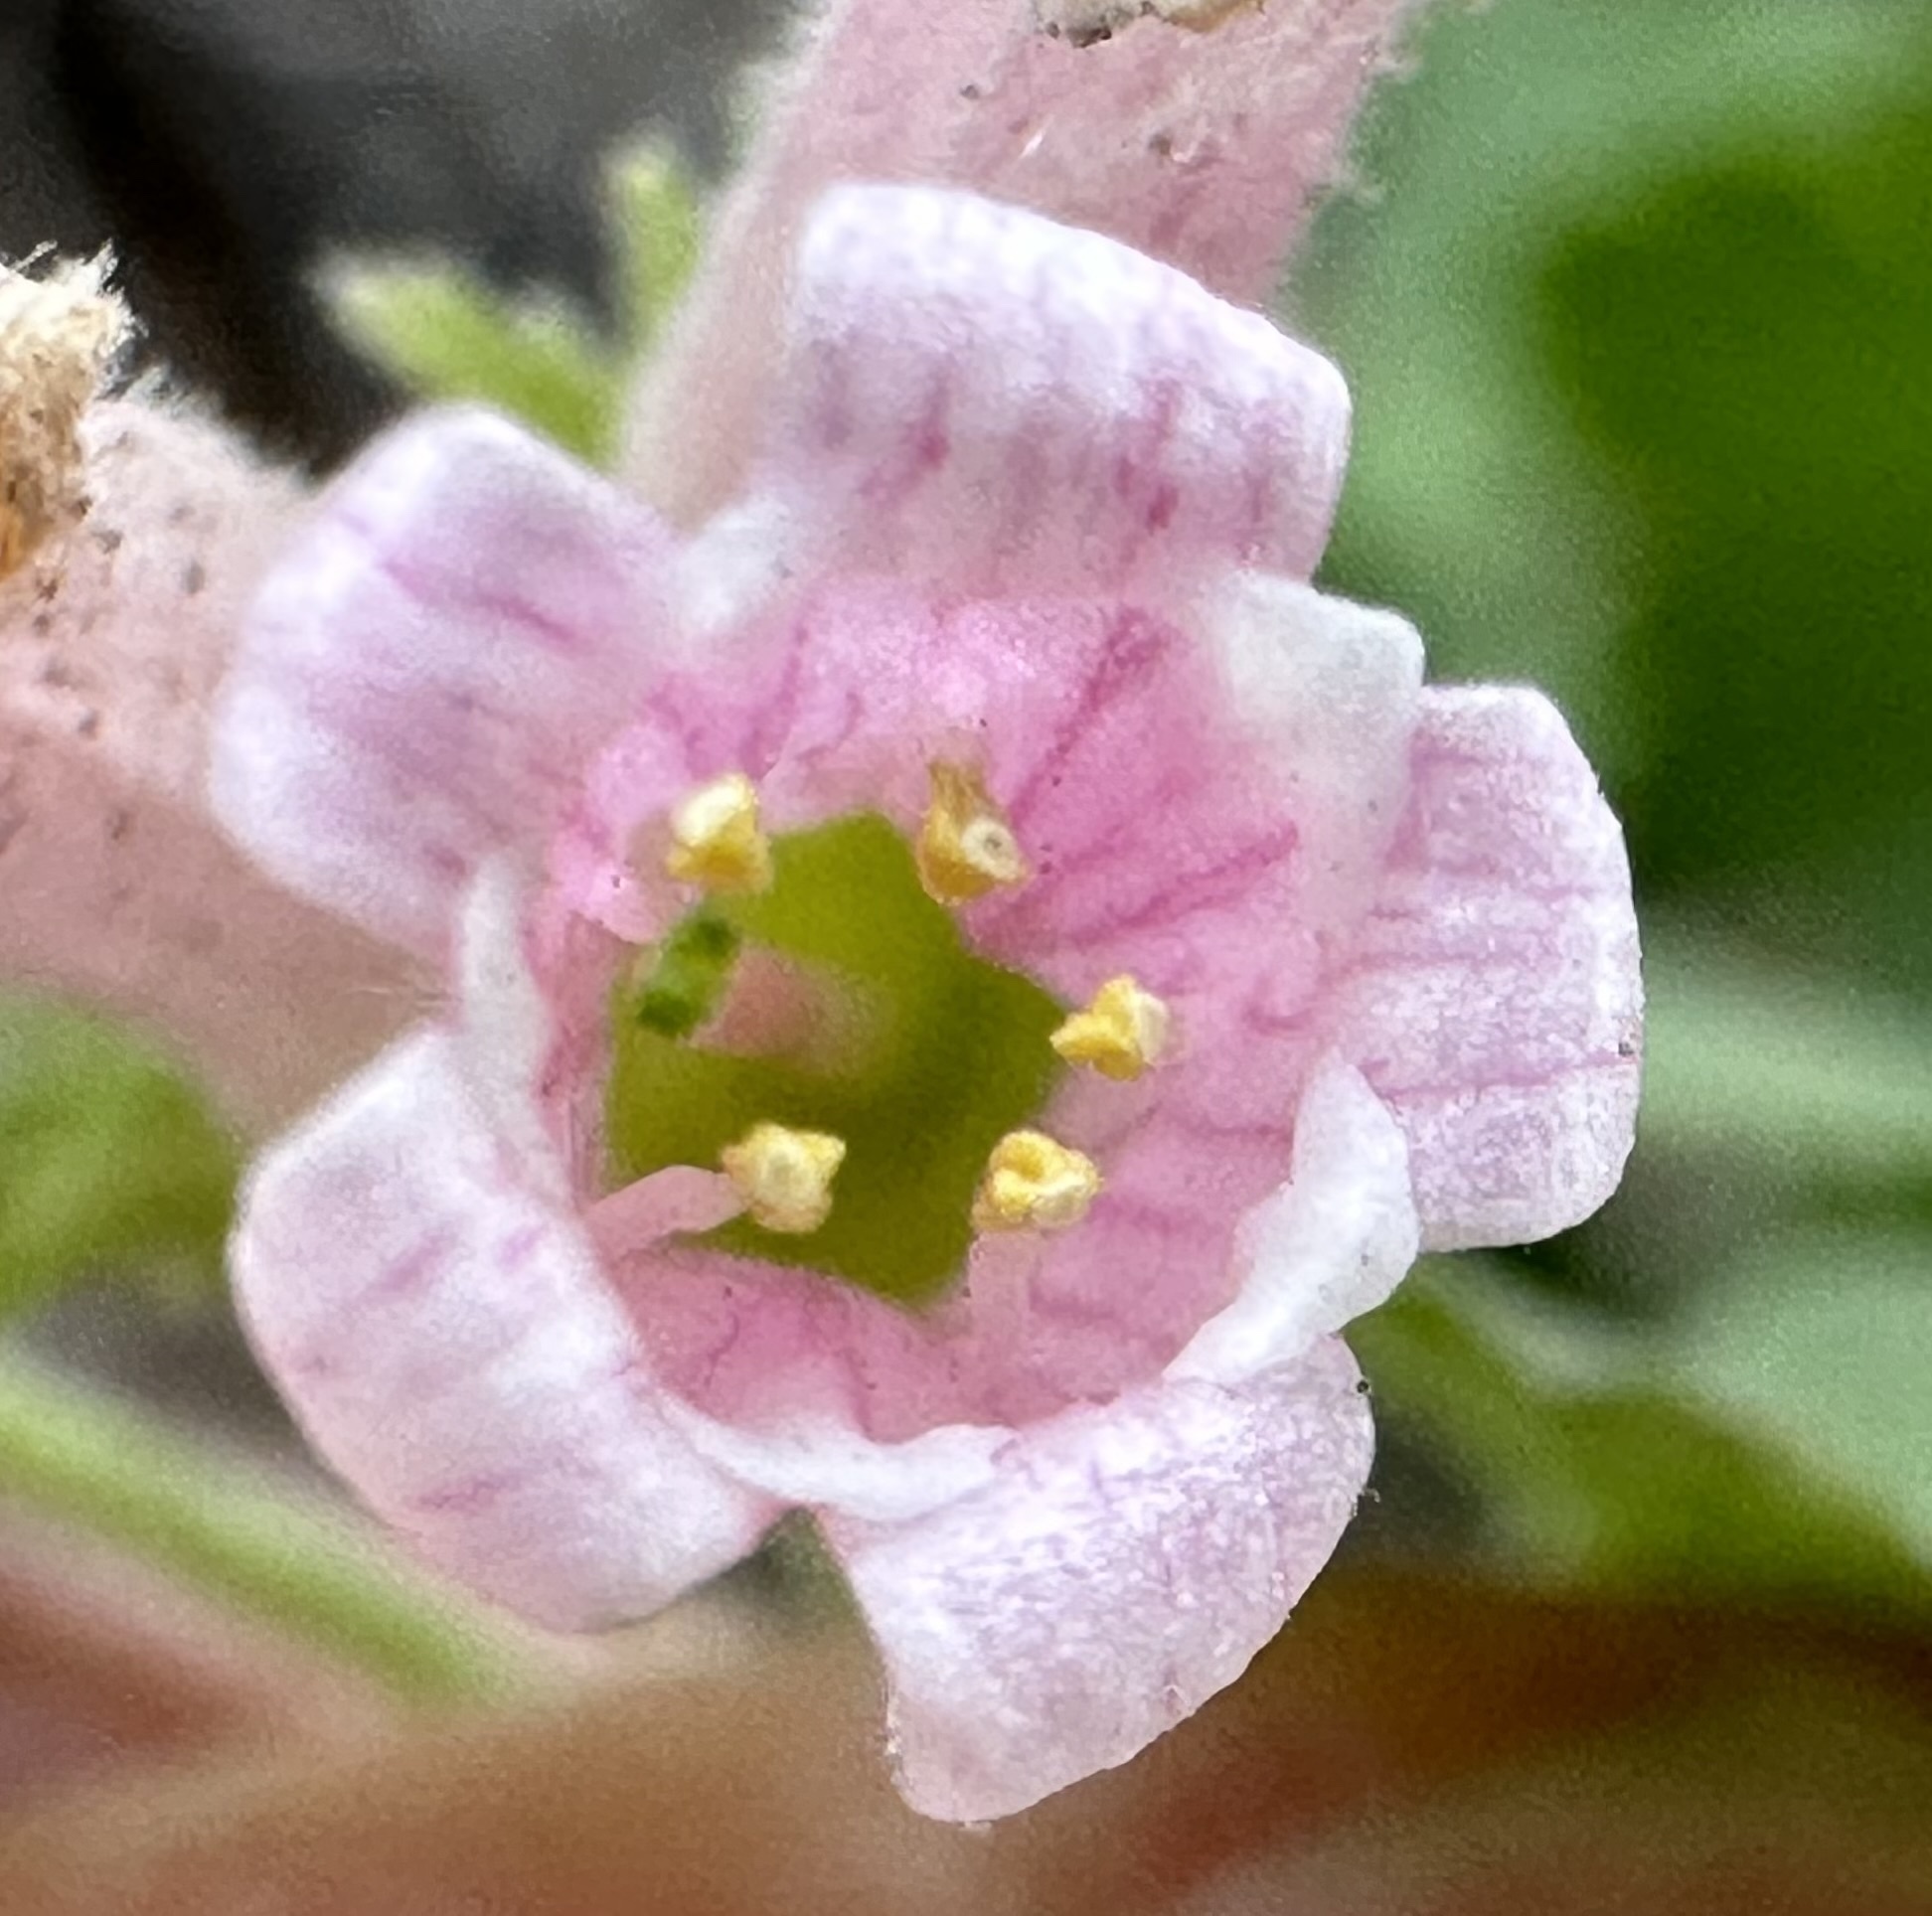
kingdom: Plantae
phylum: Tracheophyta
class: Magnoliopsida
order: Saxifragales
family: Grossulariaceae
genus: Ribes
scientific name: Ribes cereum
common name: Wax currant
